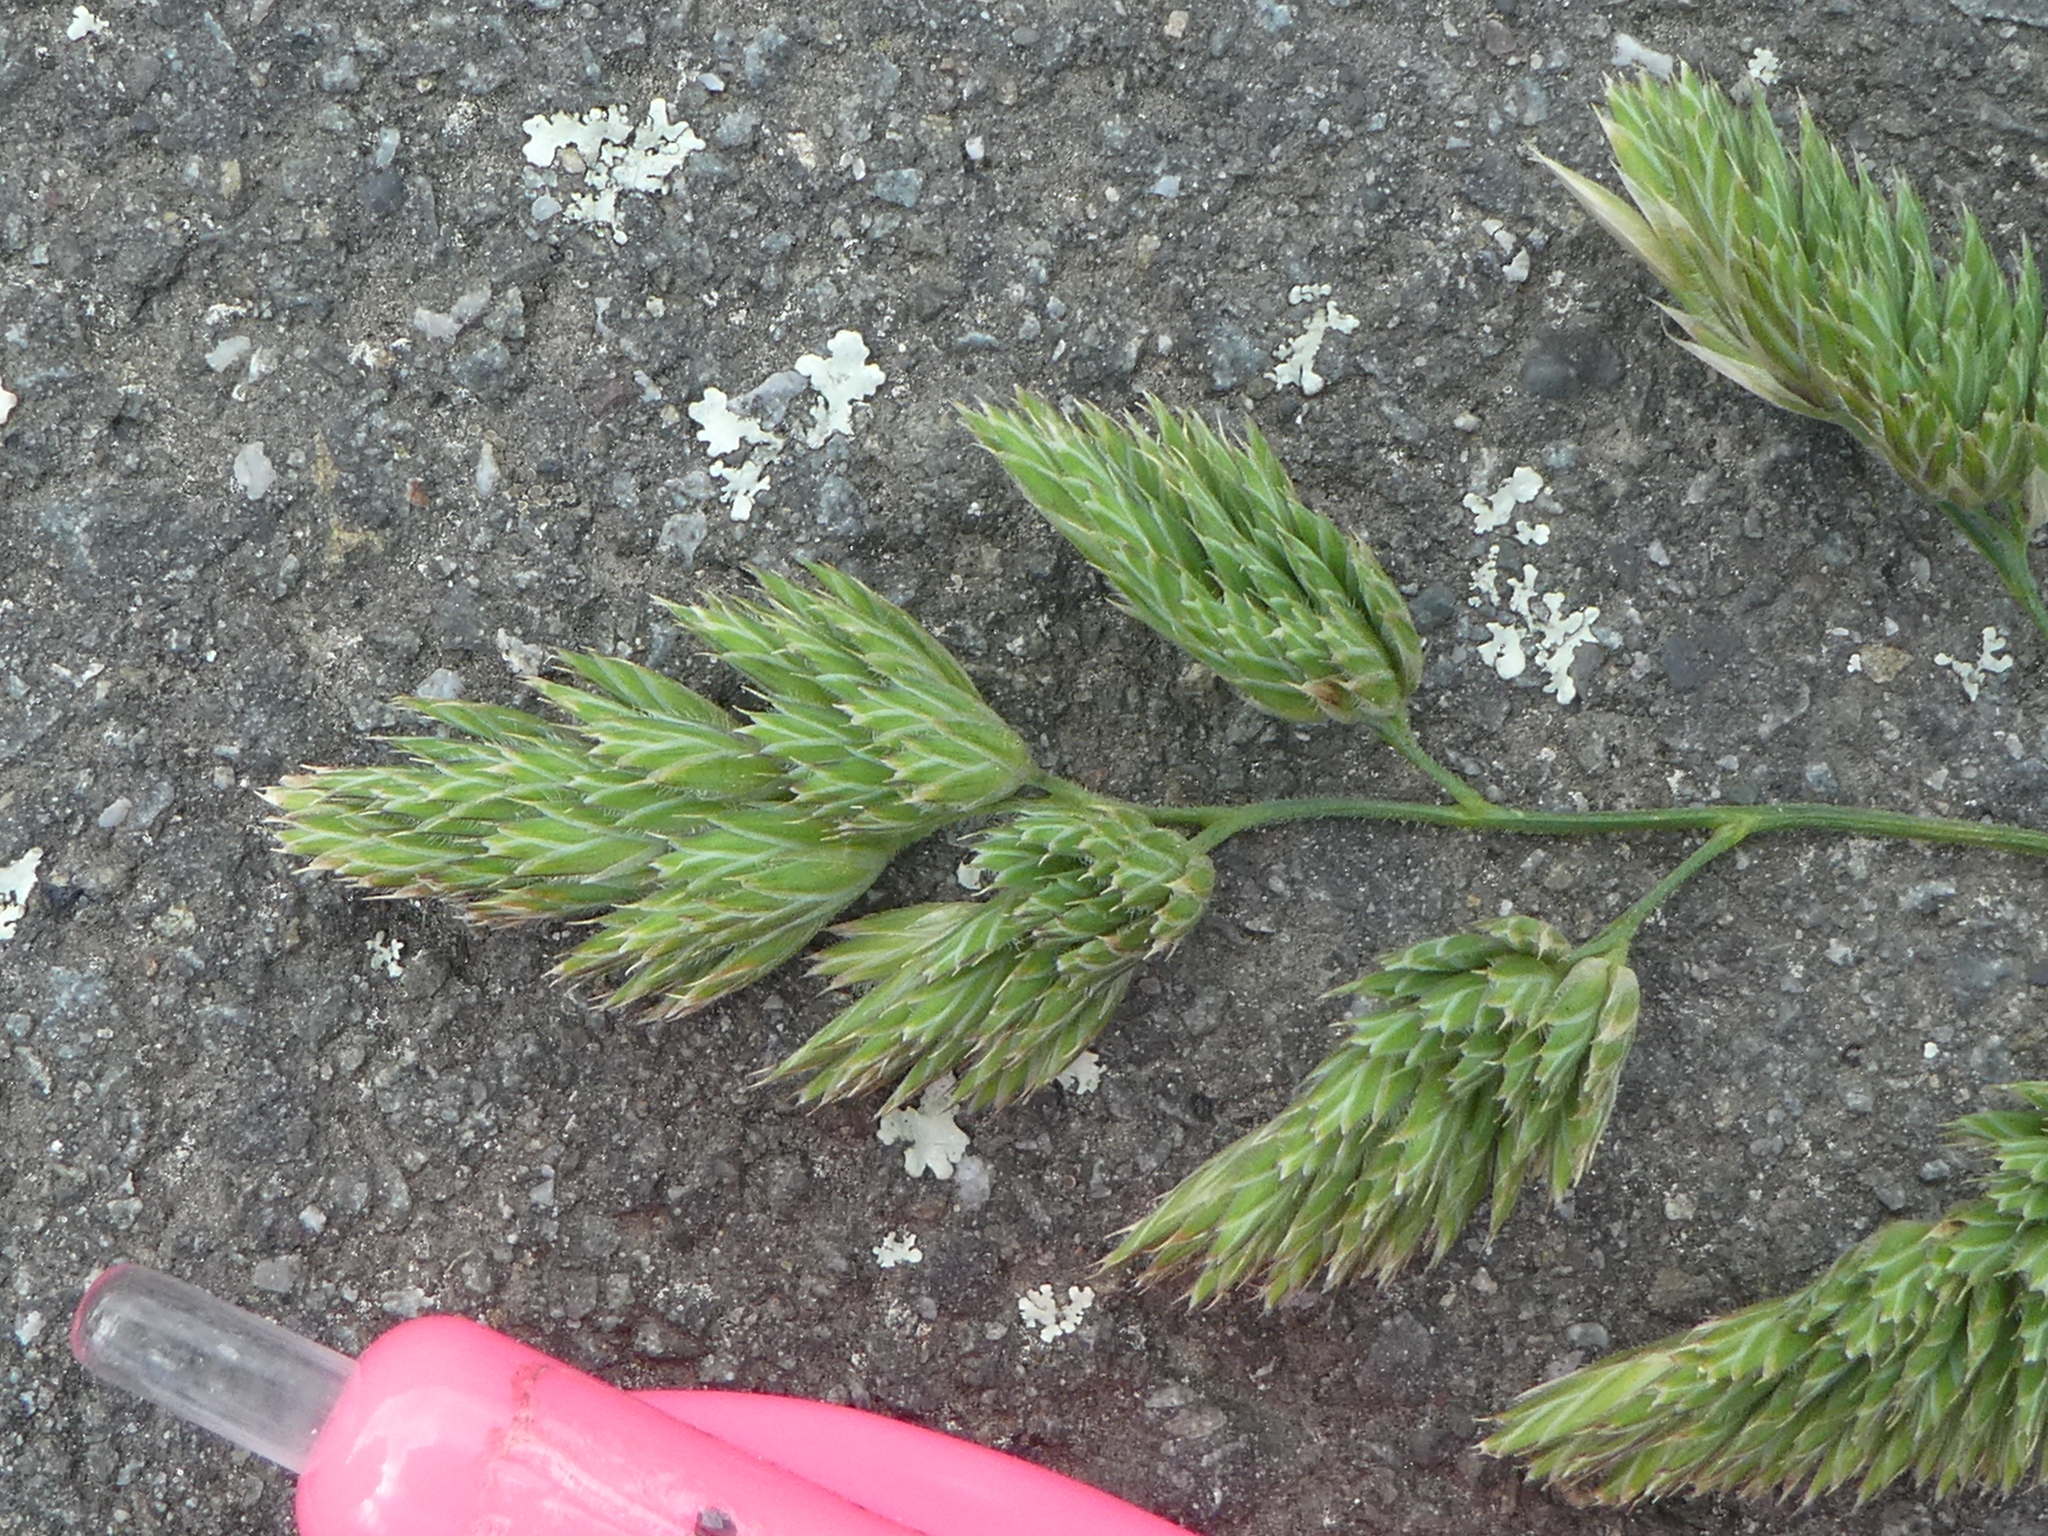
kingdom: Plantae
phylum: Tracheophyta
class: Liliopsida
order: Poales
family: Poaceae
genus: Dactylis
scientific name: Dactylis glomerata
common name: Orchardgrass
